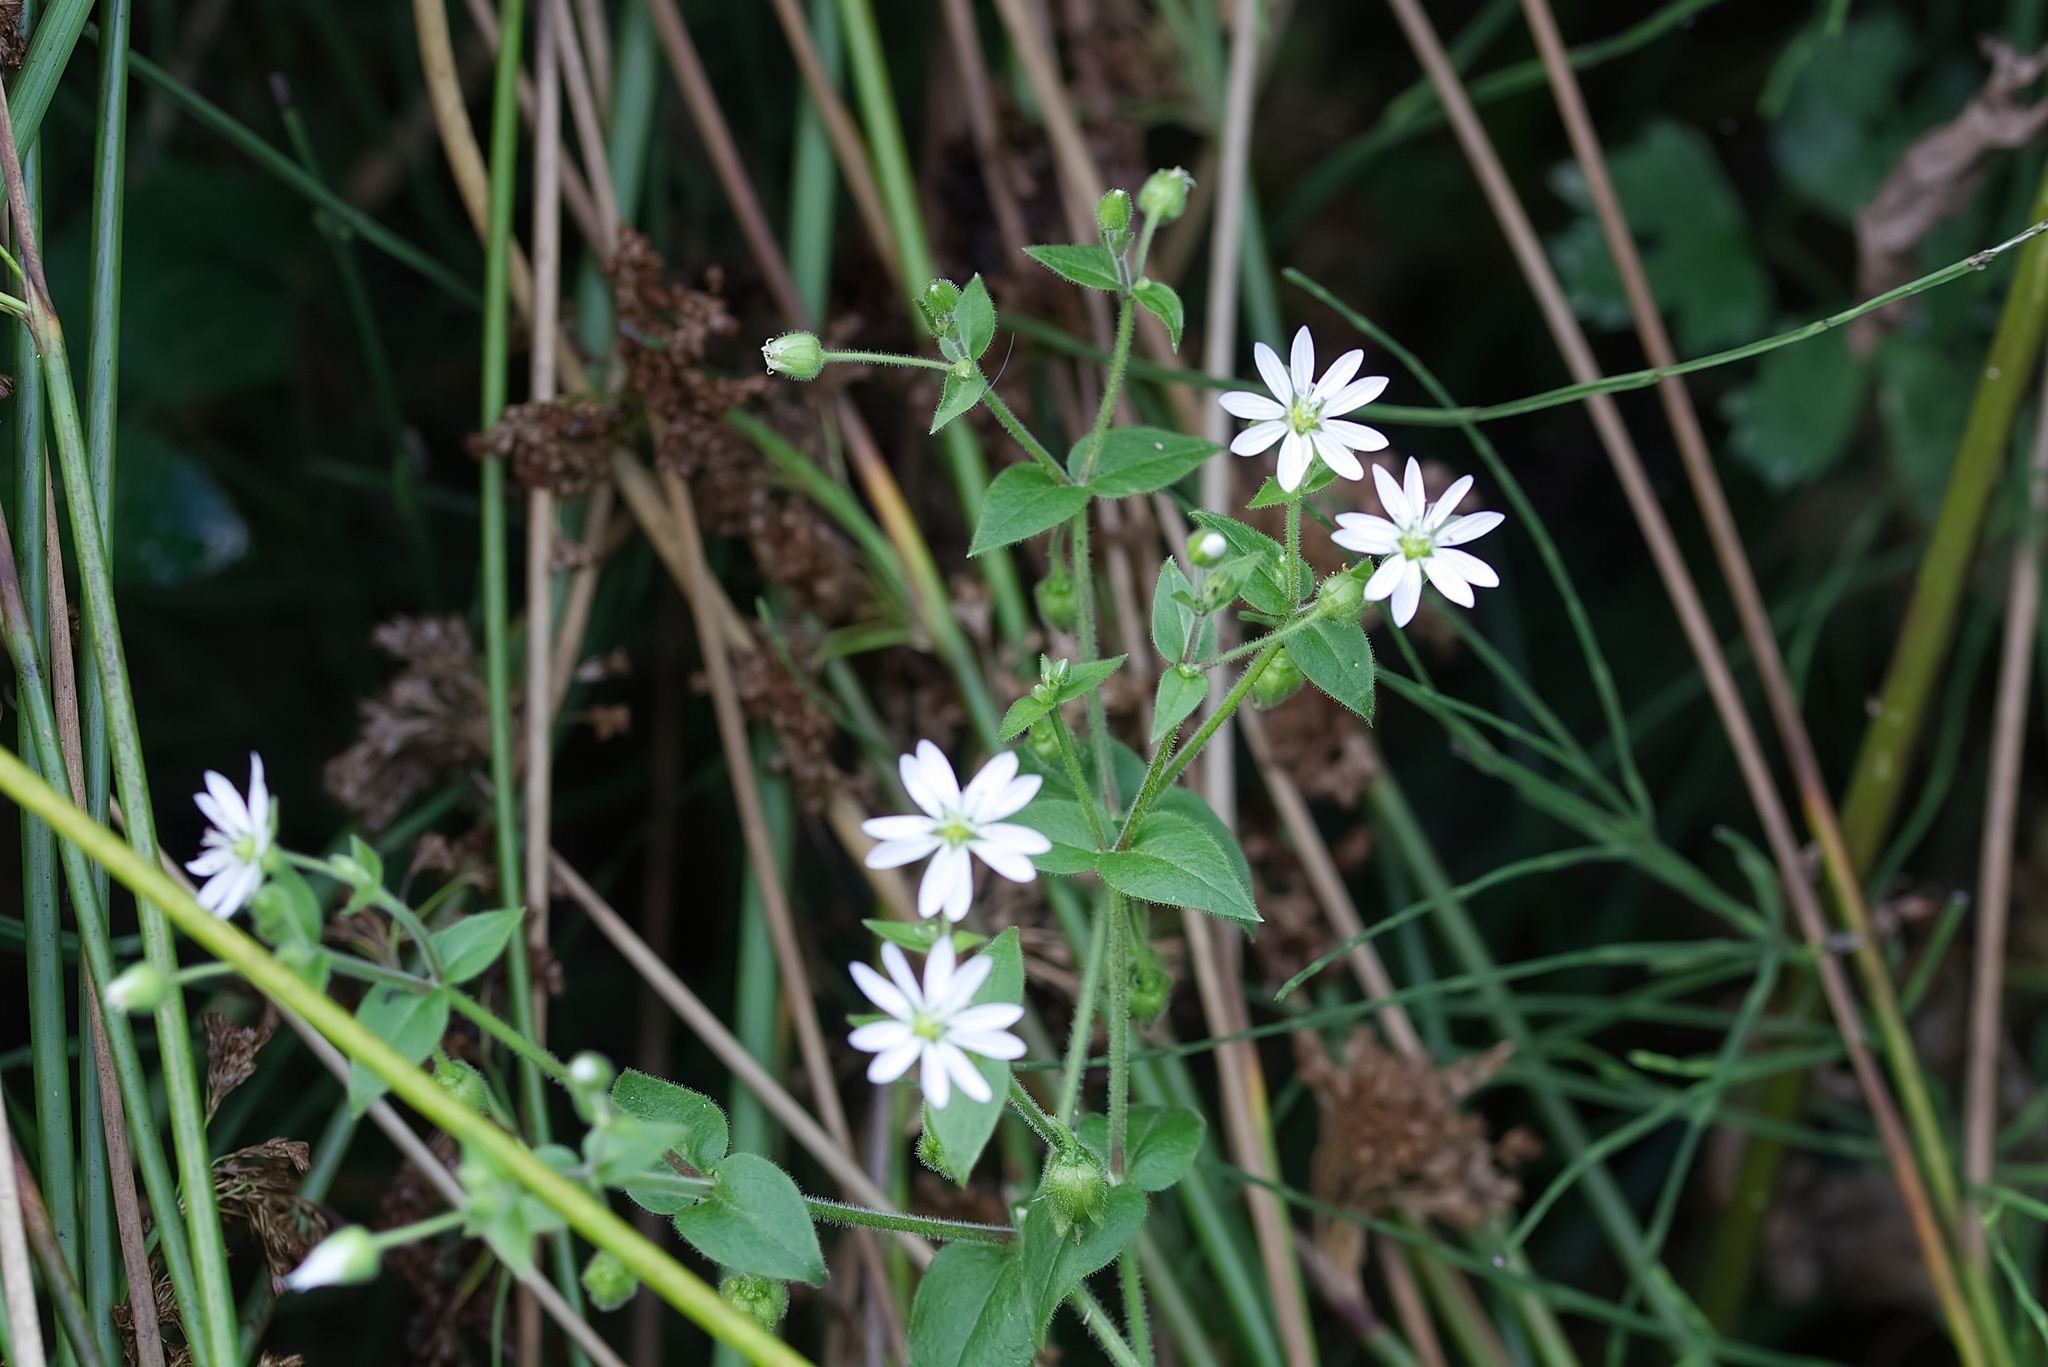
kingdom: Plantae
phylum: Tracheophyta
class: Magnoliopsida
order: Caryophyllales
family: Caryophyllaceae
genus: Stellaria
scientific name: Stellaria aquatica
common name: Water chickweed
